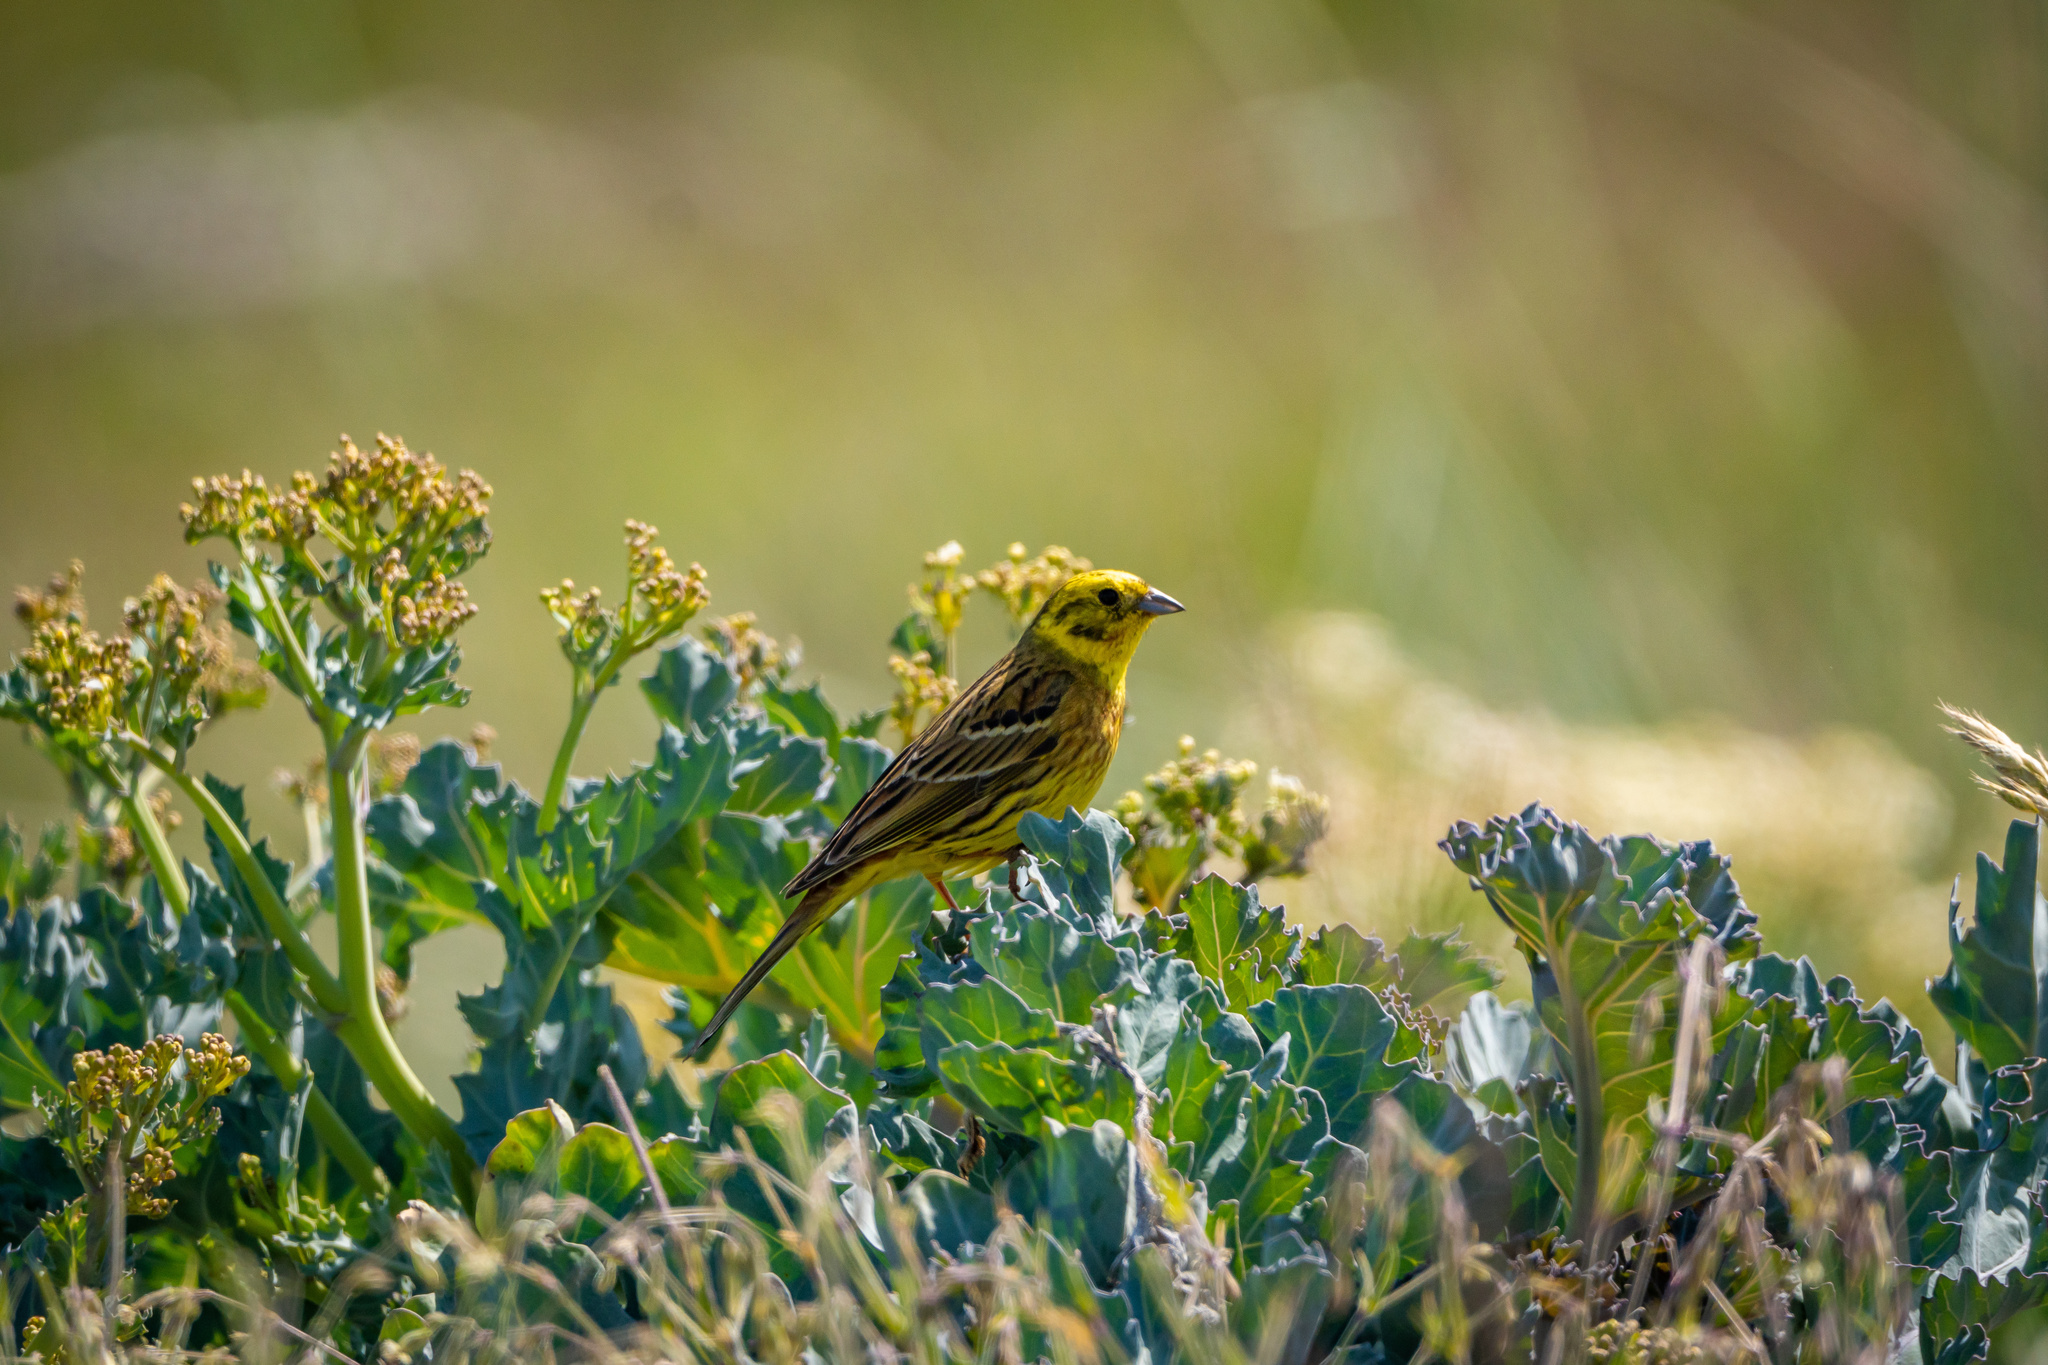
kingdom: Animalia
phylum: Chordata
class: Aves
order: Passeriformes
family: Emberizidae
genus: Emberiza
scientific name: Emberiza citrinella
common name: Yellowhammer
